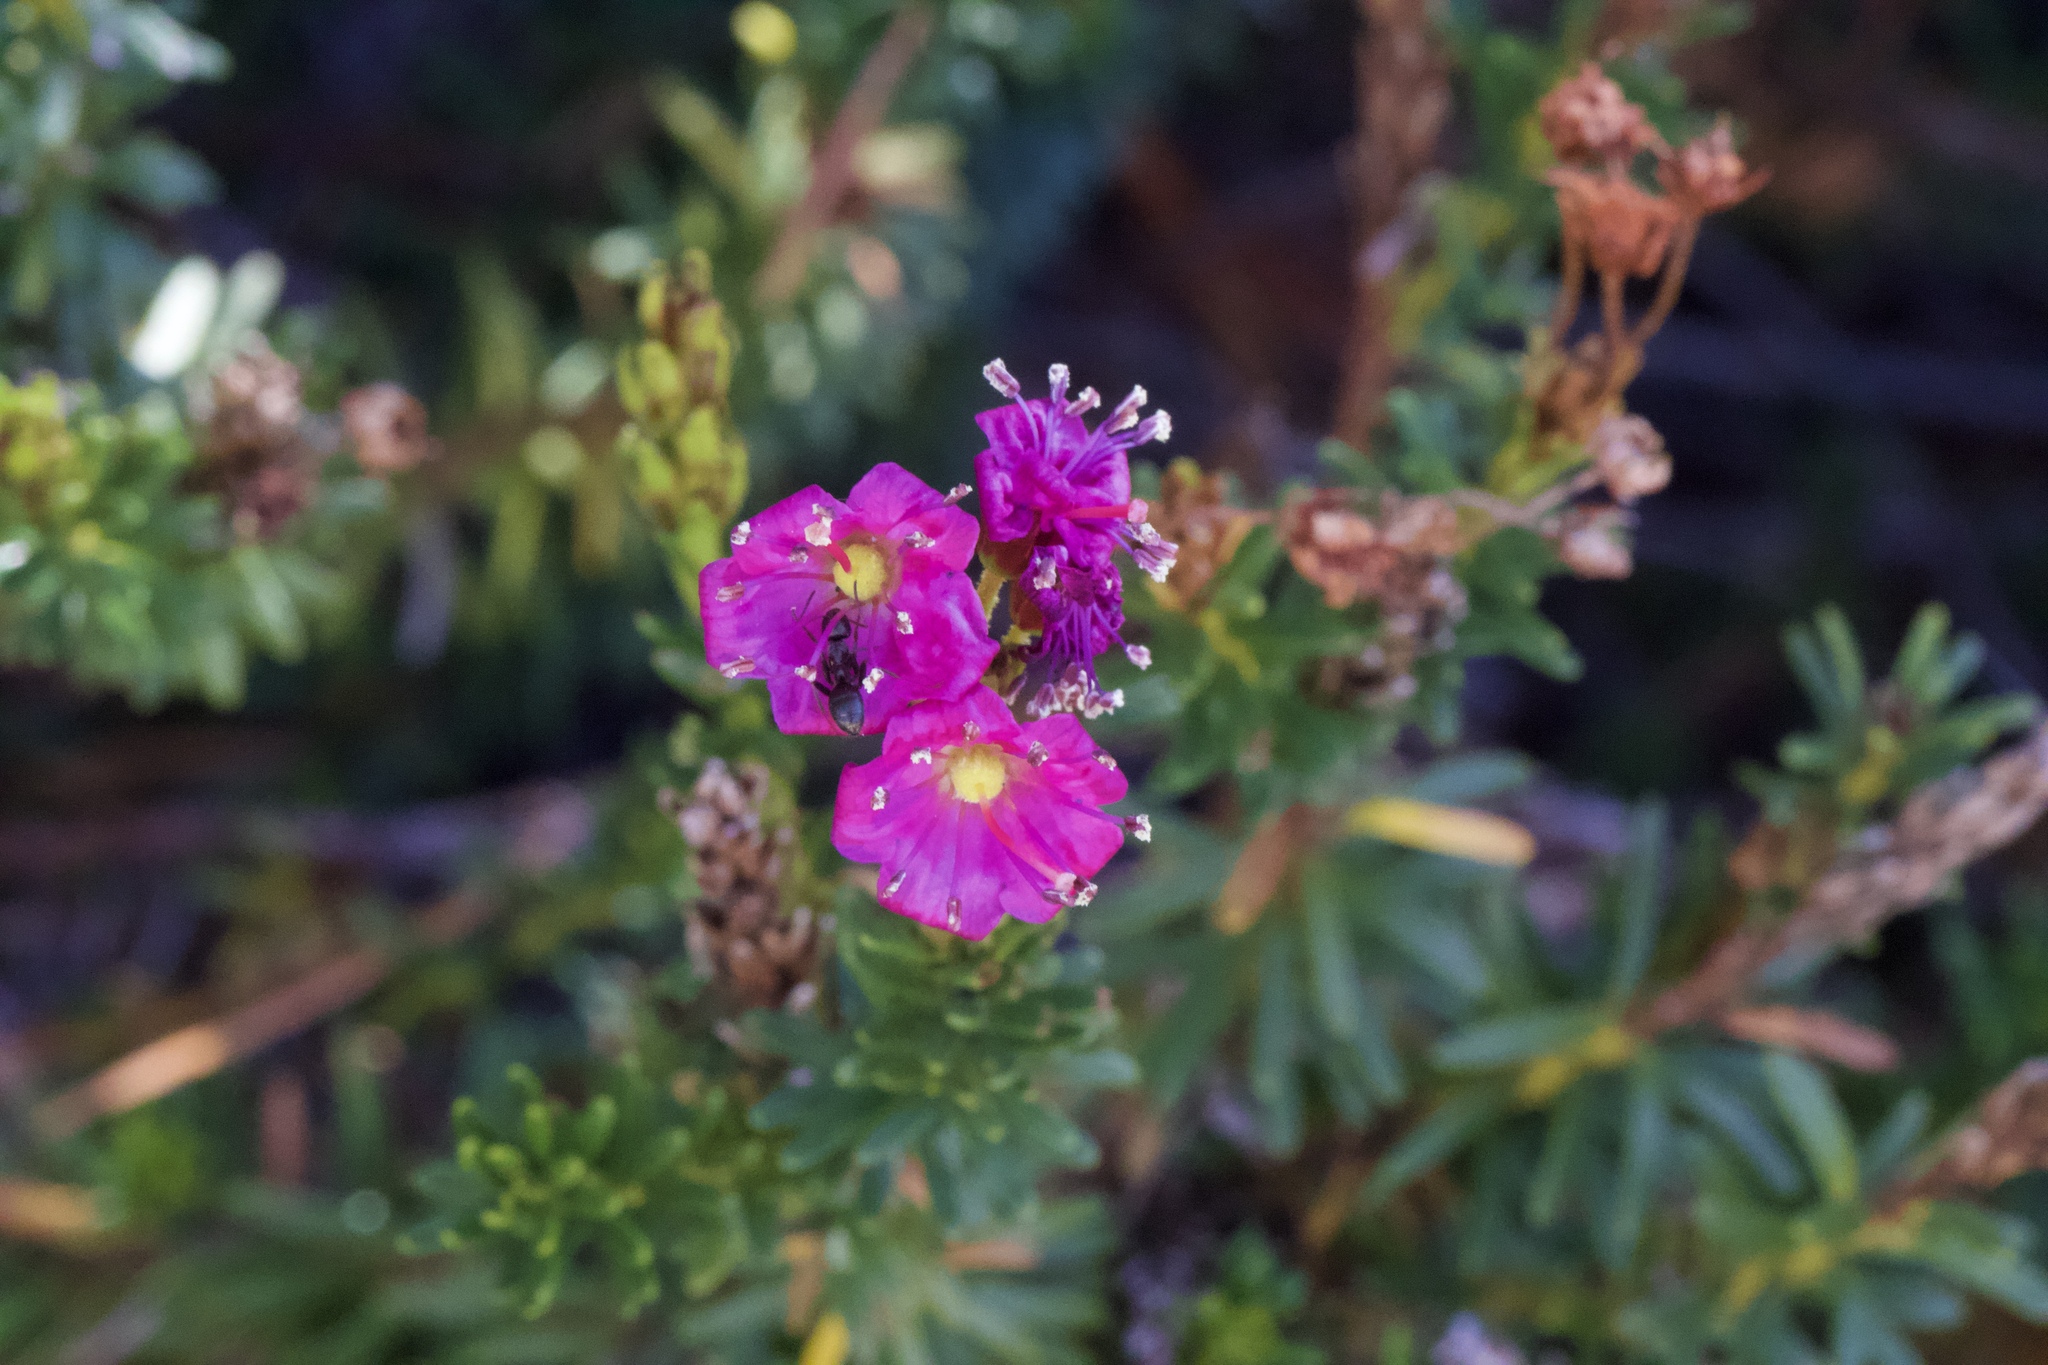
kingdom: Plantae
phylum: Tracheophyta
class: Magnoliopsida
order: Ericales
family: Ericaceae
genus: Phyllodoce
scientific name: Phyllodoce breweri
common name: Brewer's mountain-heather
